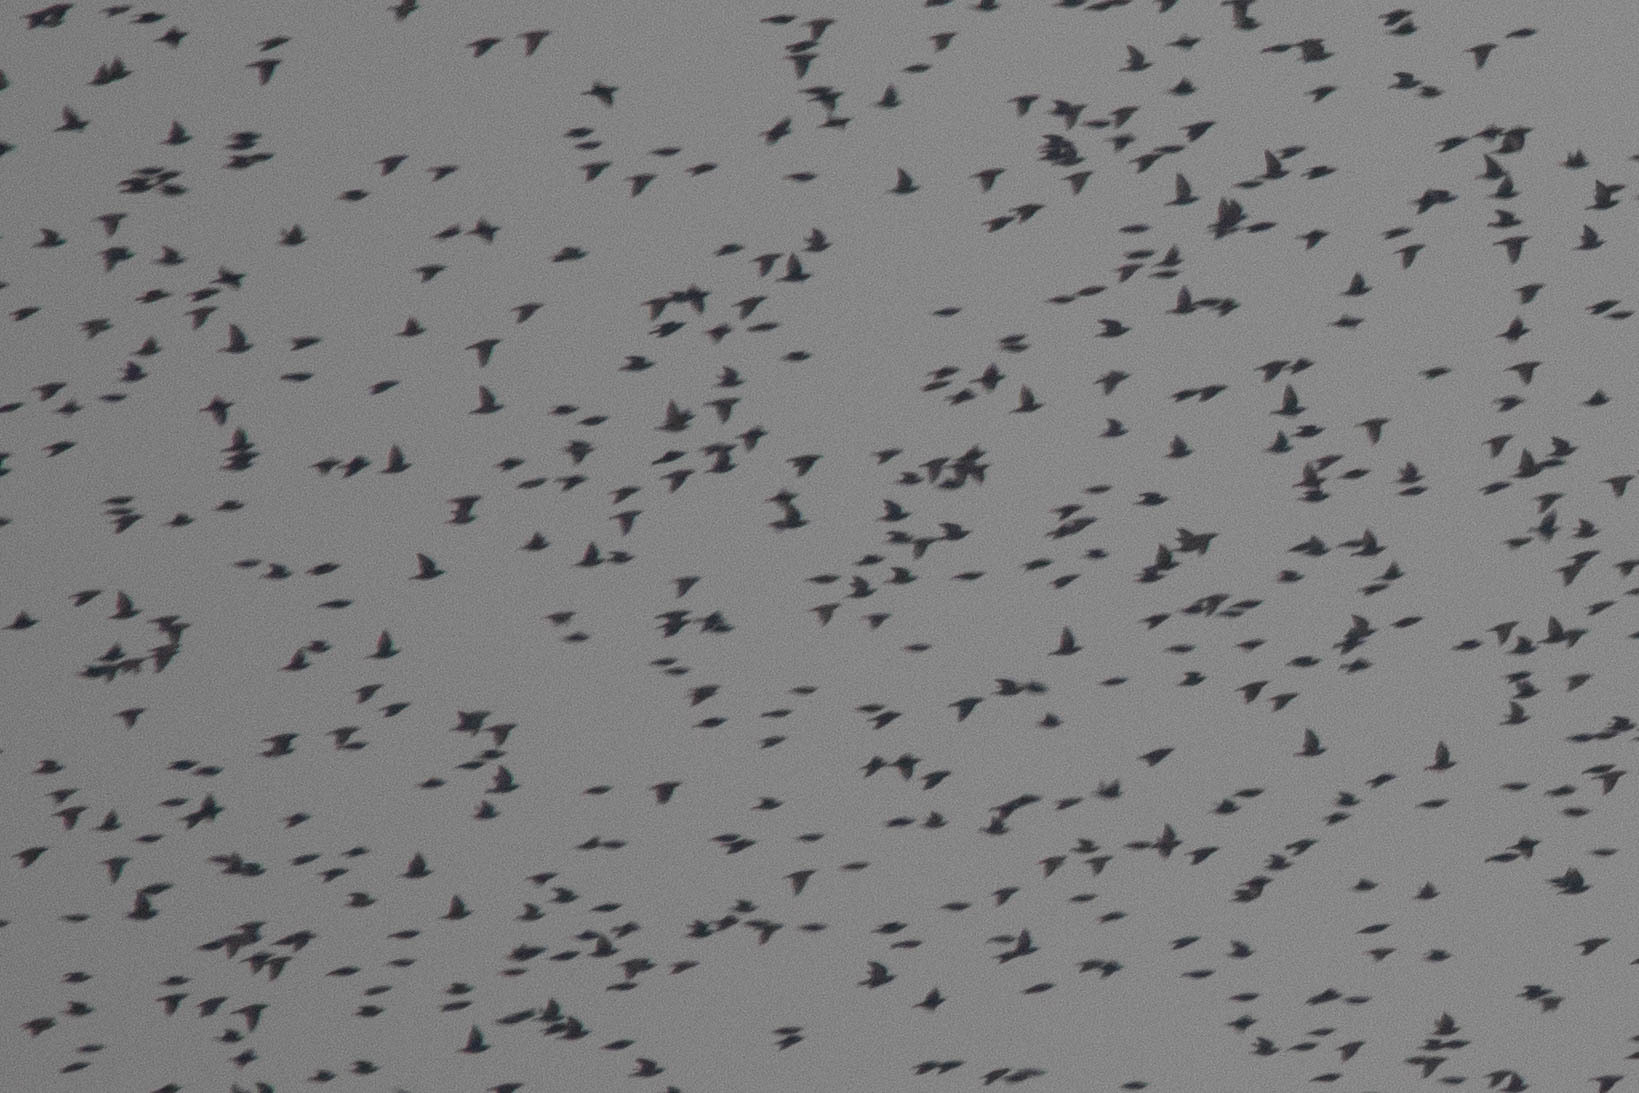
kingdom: Animalia
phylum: Chordata
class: Aves
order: Passeriformes
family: Sturnidae
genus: Sturnus
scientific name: Sturnus vulgaris
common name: Common starling
